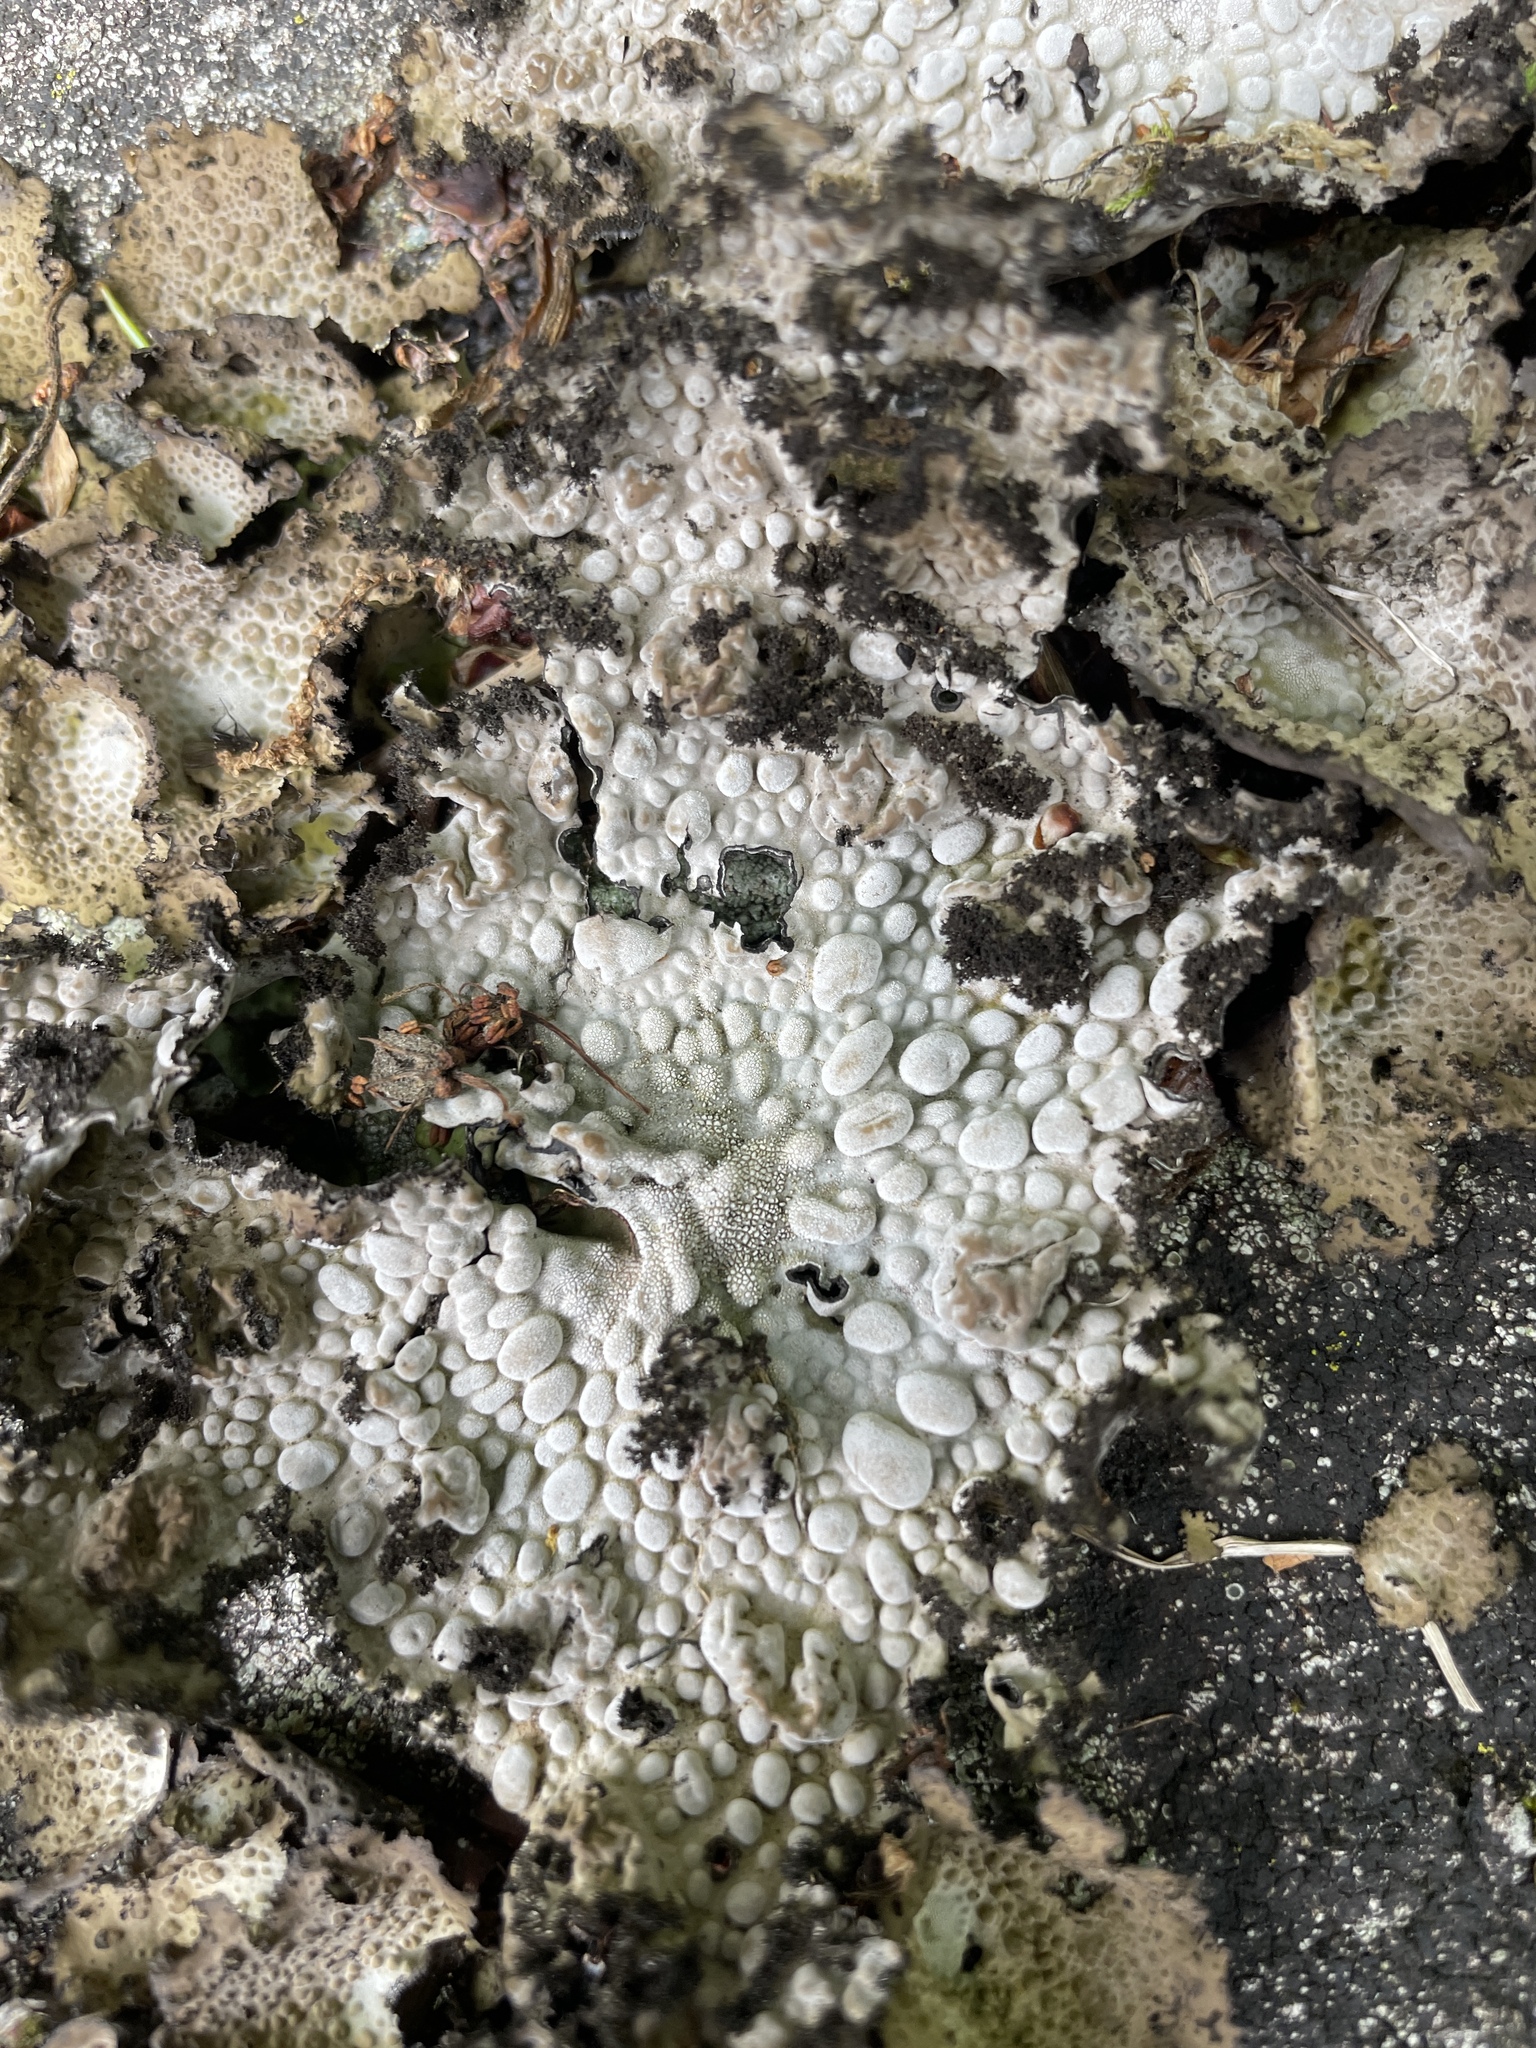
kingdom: Fungi
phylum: Ascomycota
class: Lecanoromycetes
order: Umbilicariales
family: Umbilicariaceae
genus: Lasallia
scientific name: Lasallia pustulata
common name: Blistered toadskin lichen
